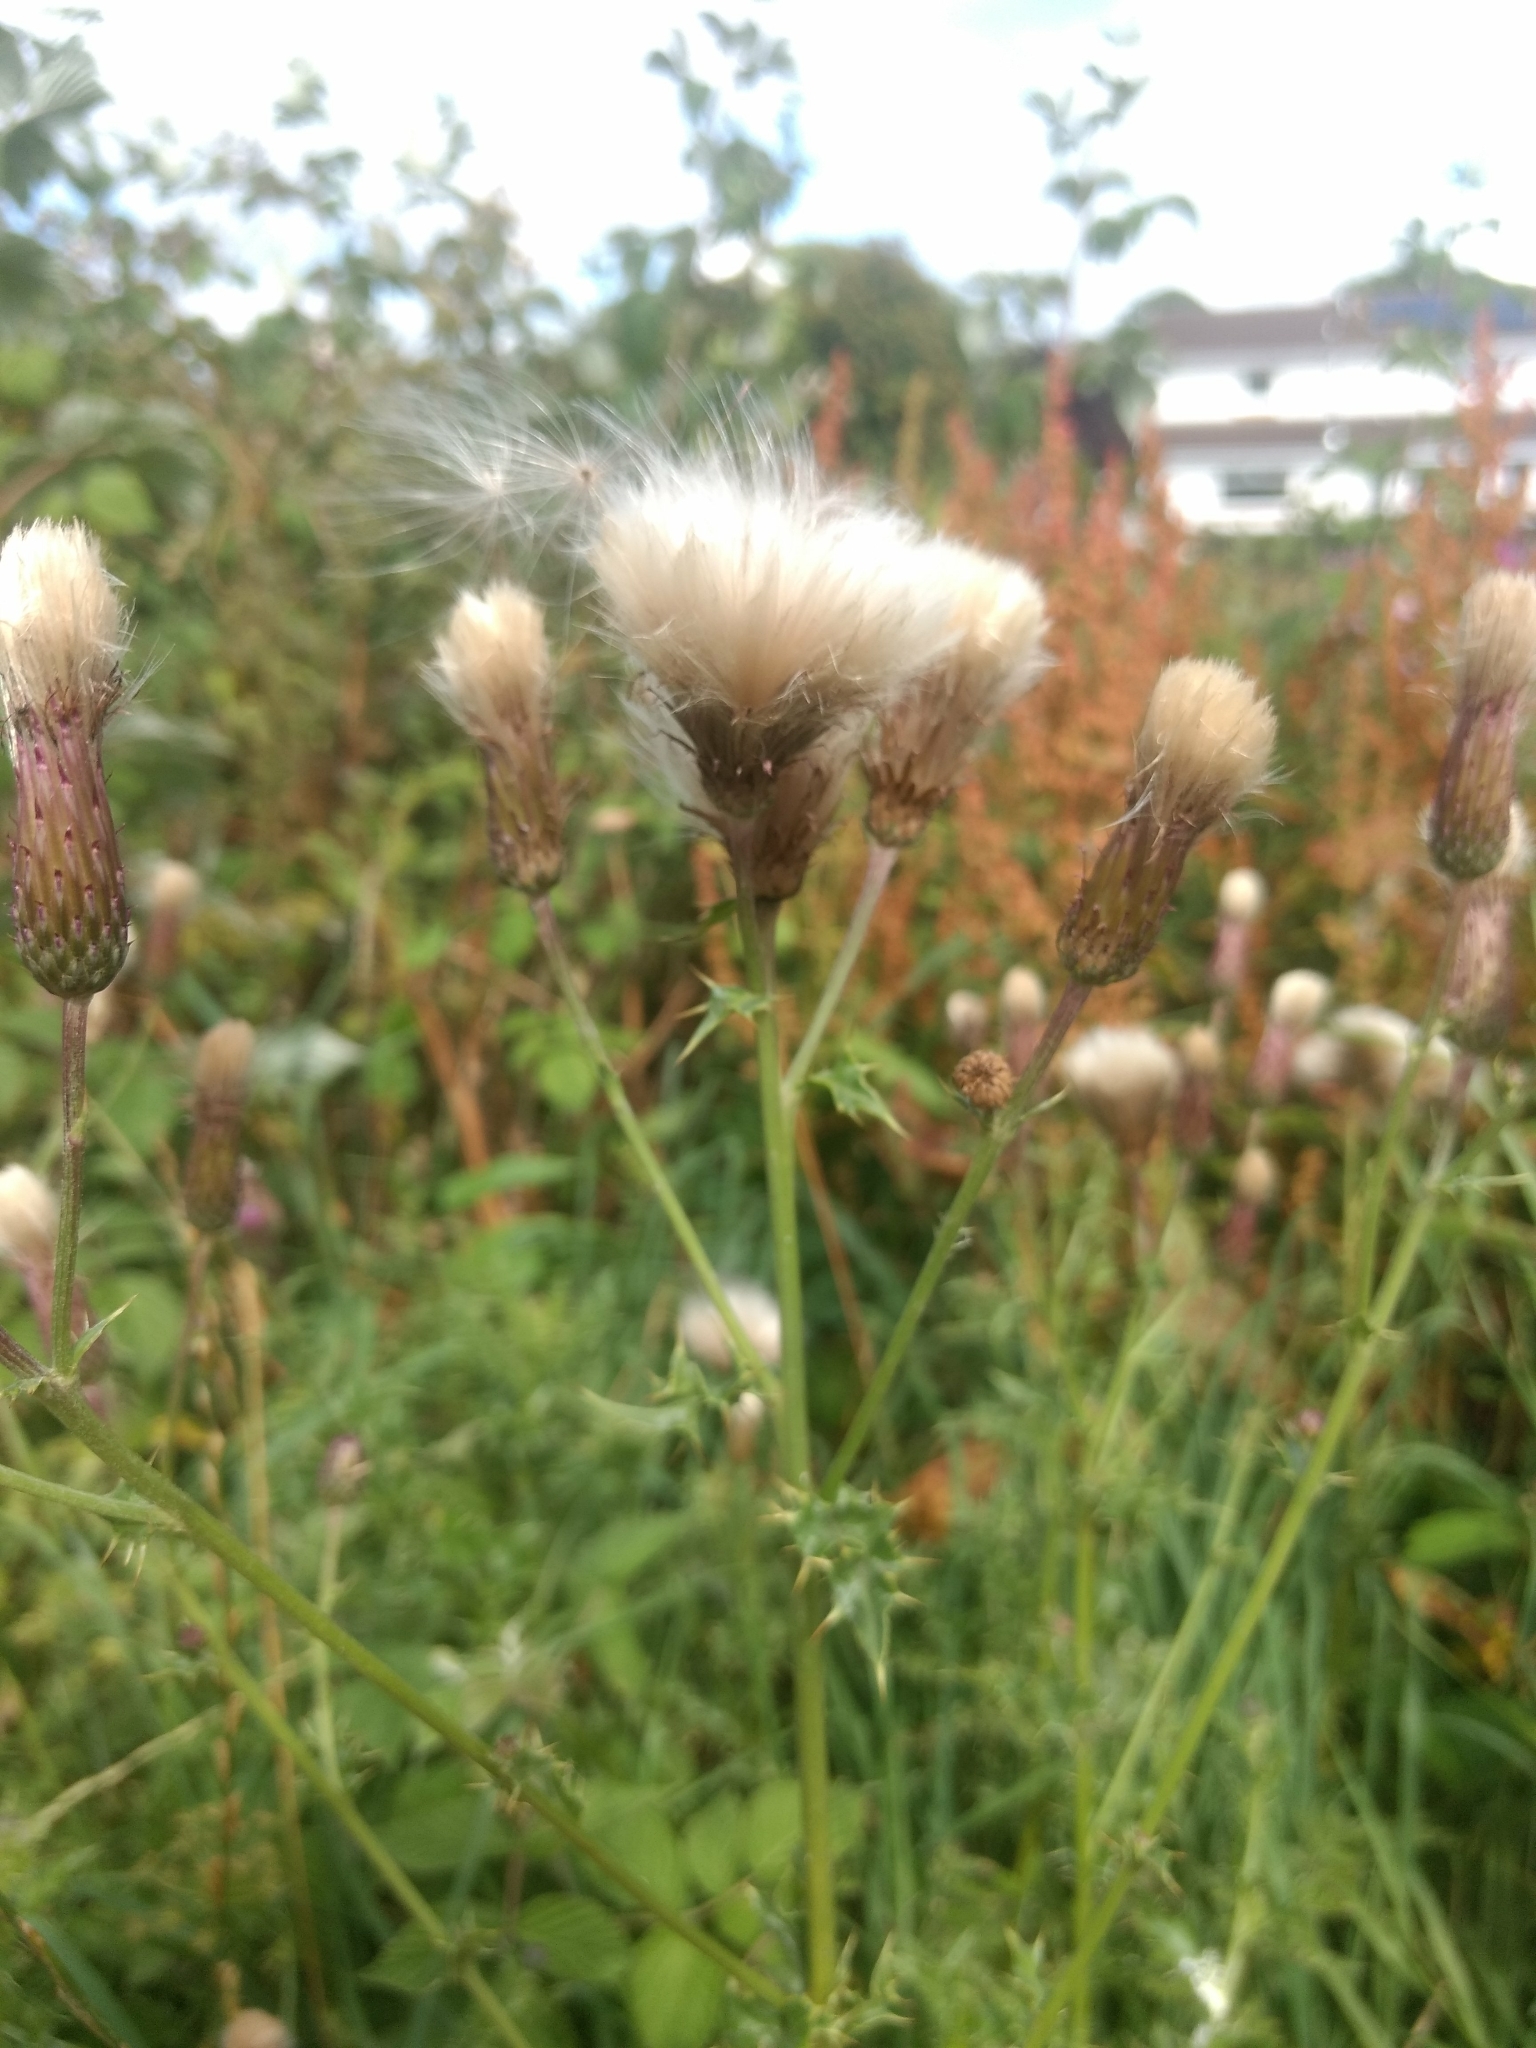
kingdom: Plantae
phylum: Tracheophyta
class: Magnoliopsida
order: Asterales
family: Asteraceae
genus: Cirsium
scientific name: Cirsium arvense
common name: Creeping thistle
